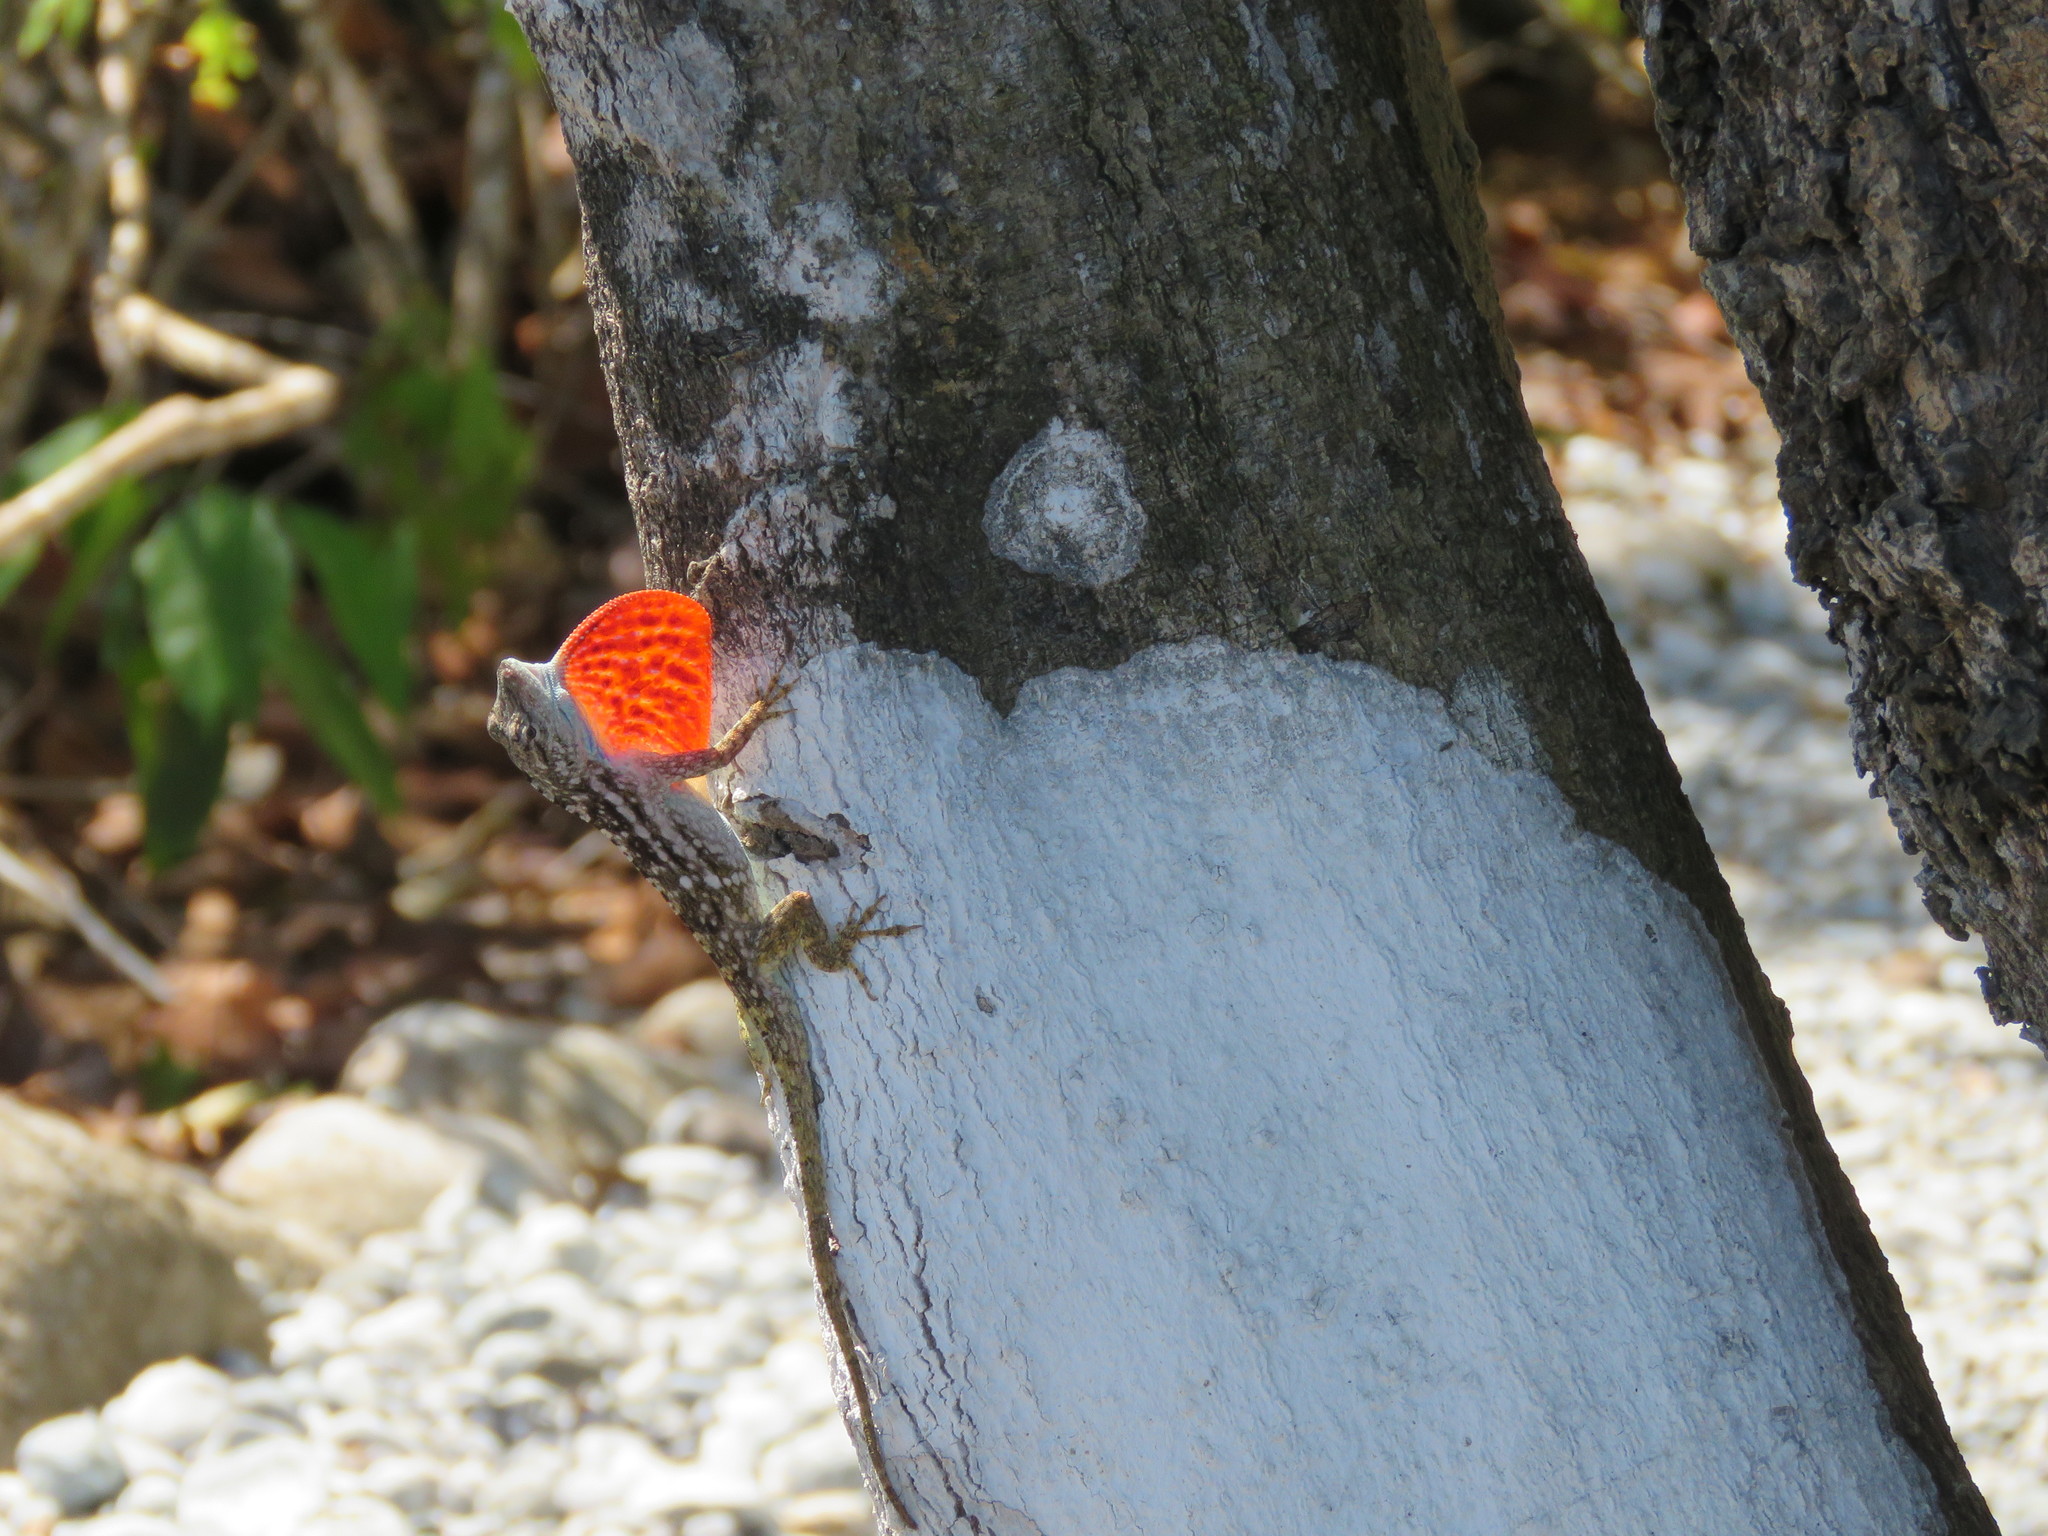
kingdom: Animalia
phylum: Chordata
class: Squamata
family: Dactyloidae
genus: Anolis
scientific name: Anolis charlesmyersi
